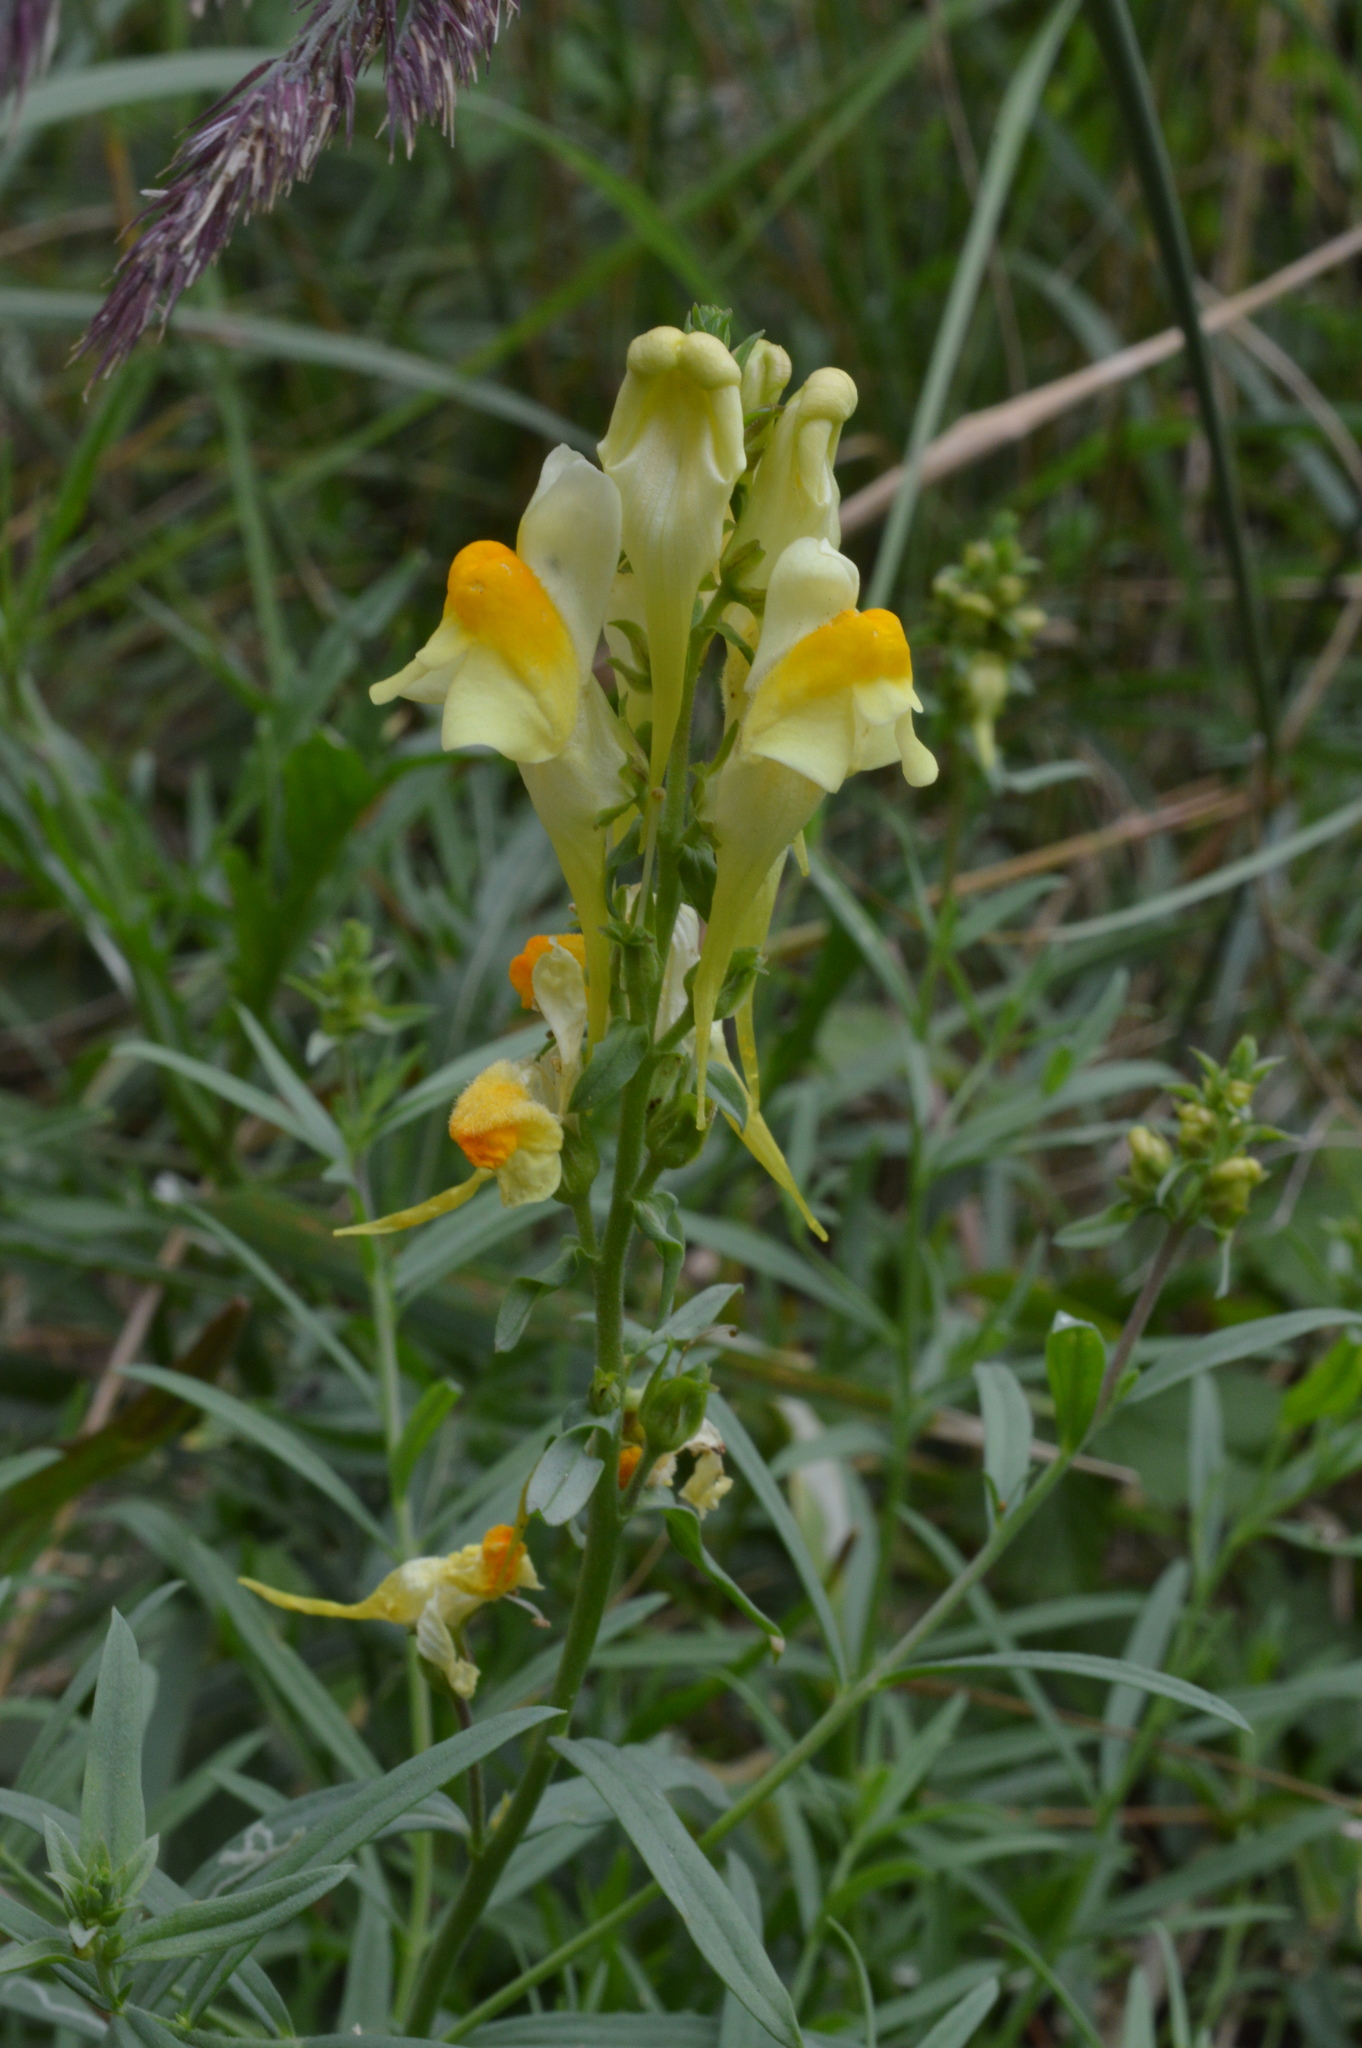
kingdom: Plantae
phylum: Tracheophyta
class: Magnoliopsida
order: Lamiales
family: Plantaginaceae
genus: Linaria
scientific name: Linaria vulgaris
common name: Butter and eggs
